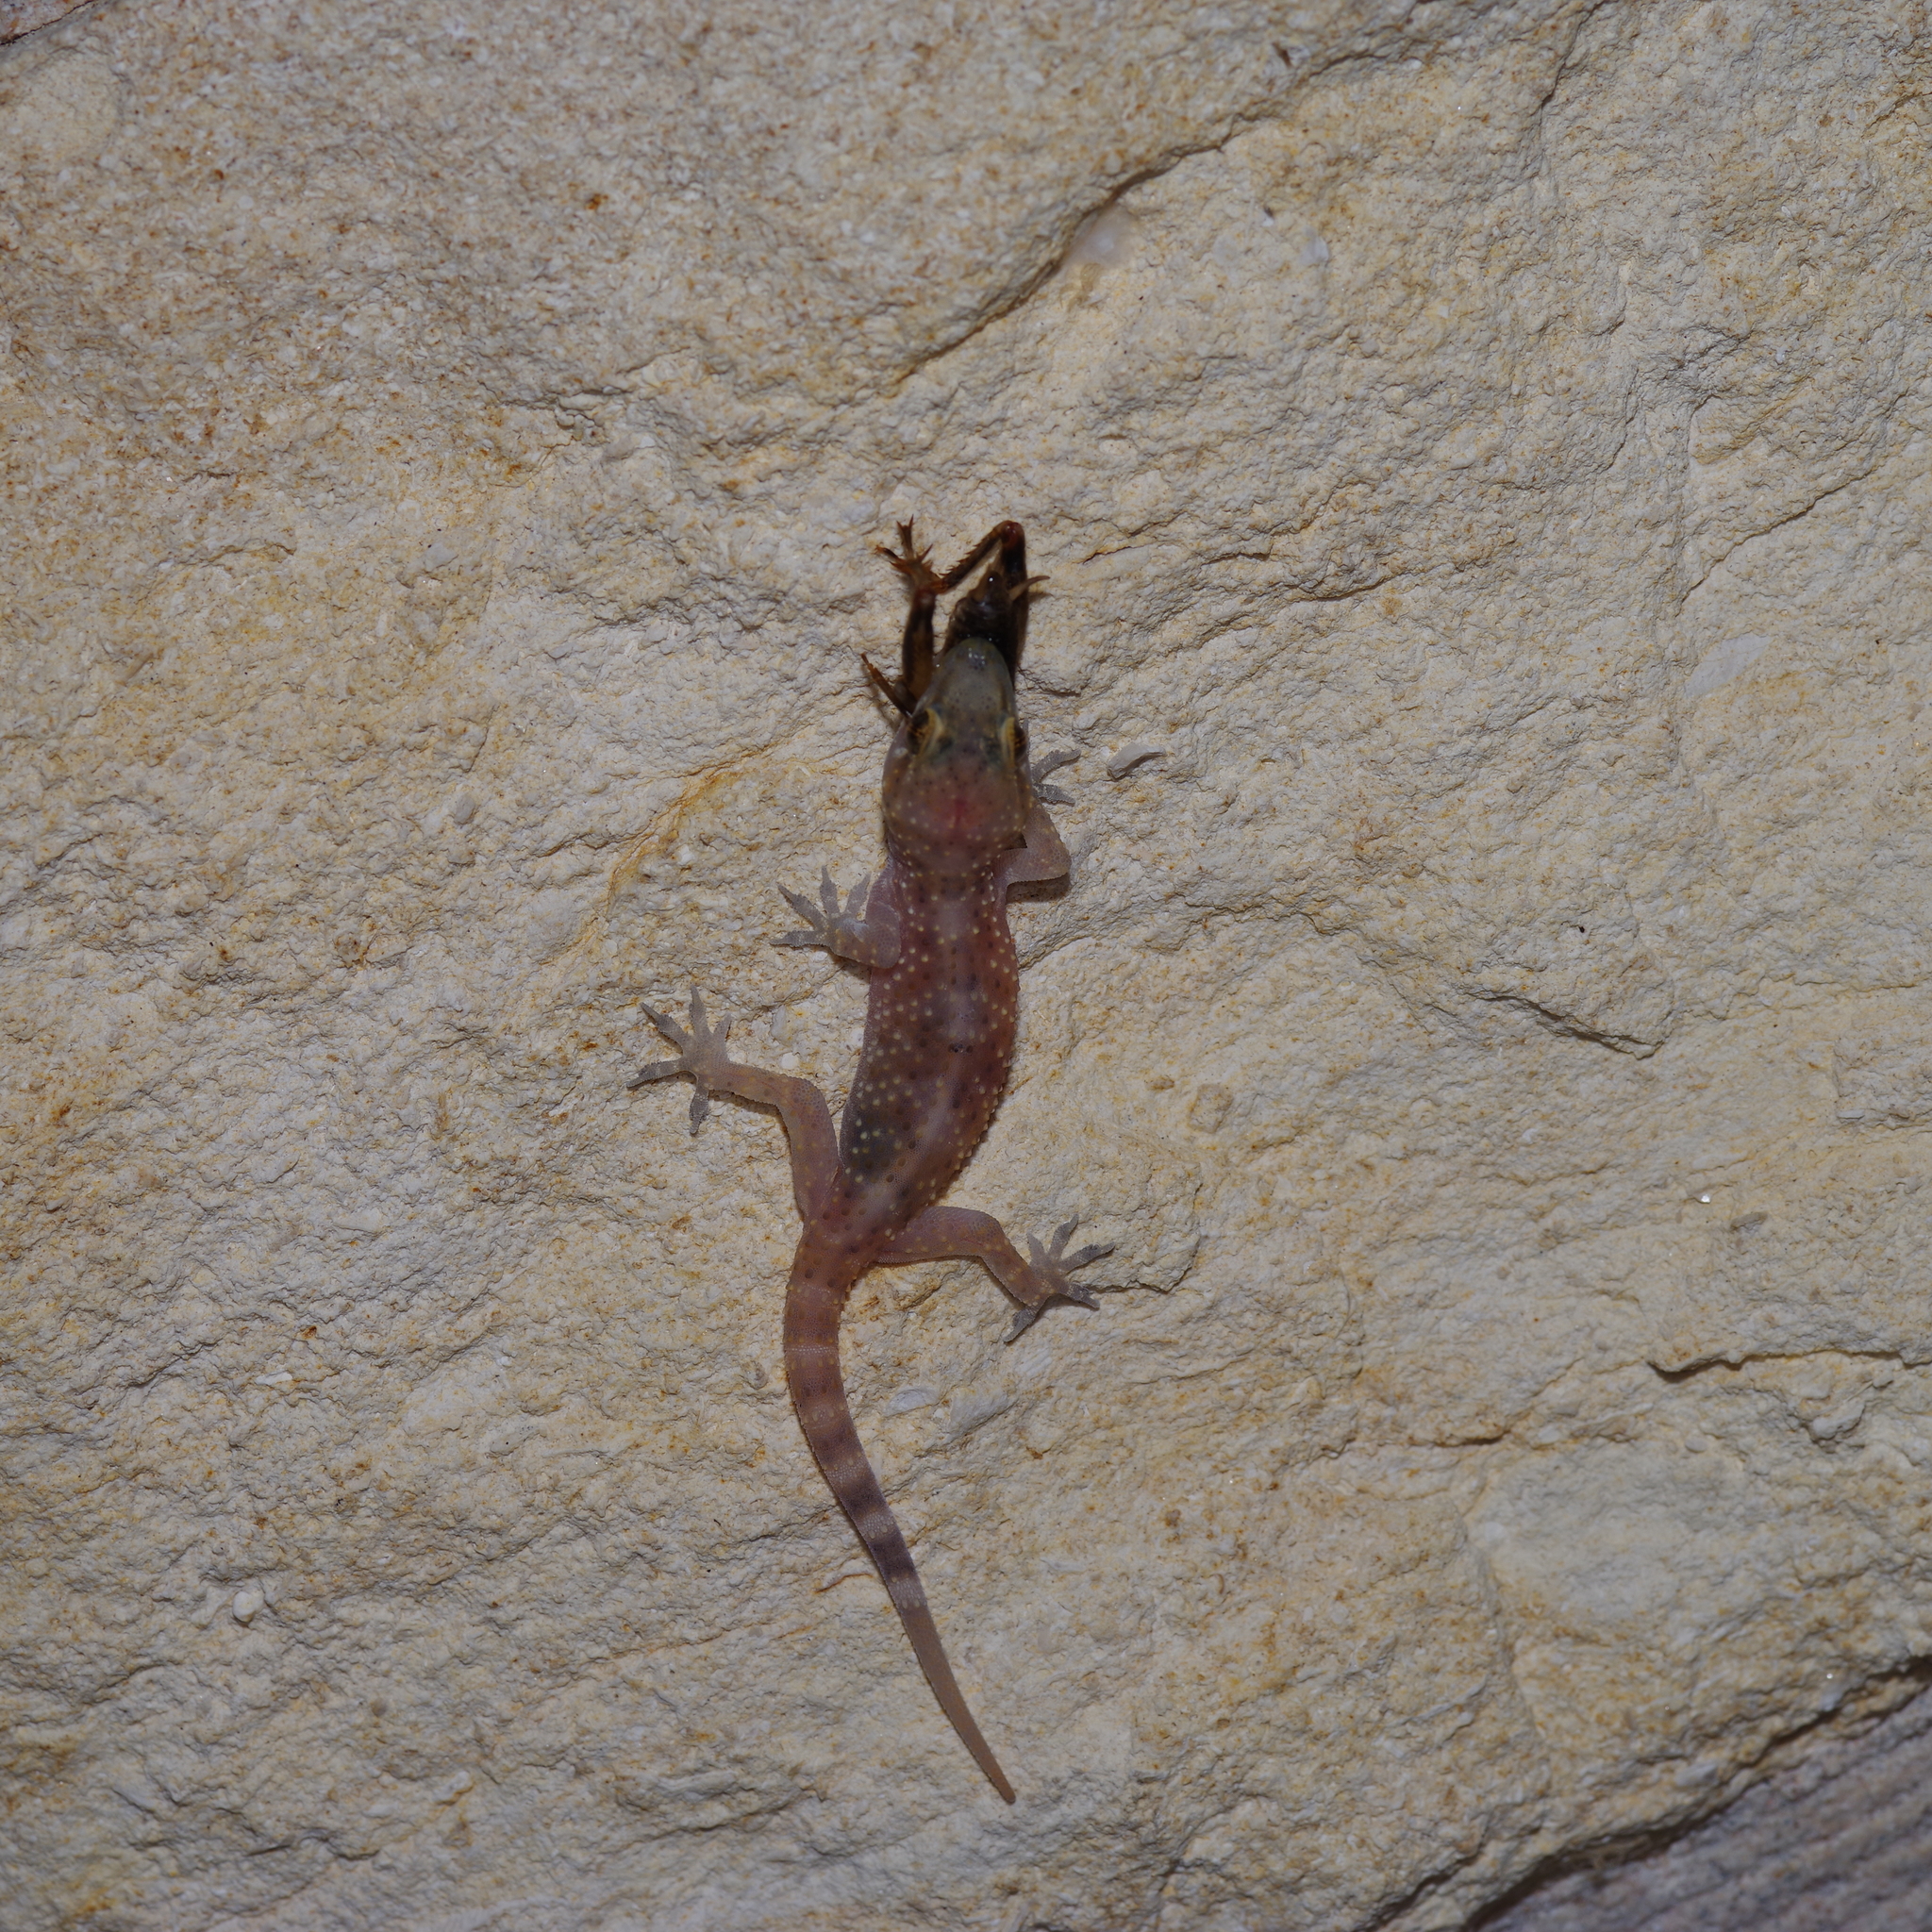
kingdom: Animalia
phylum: Chordata
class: Squamata
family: Gekkonidae
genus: Hemidactylus
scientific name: Hemidactylus turcicus
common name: Turkish gecko
